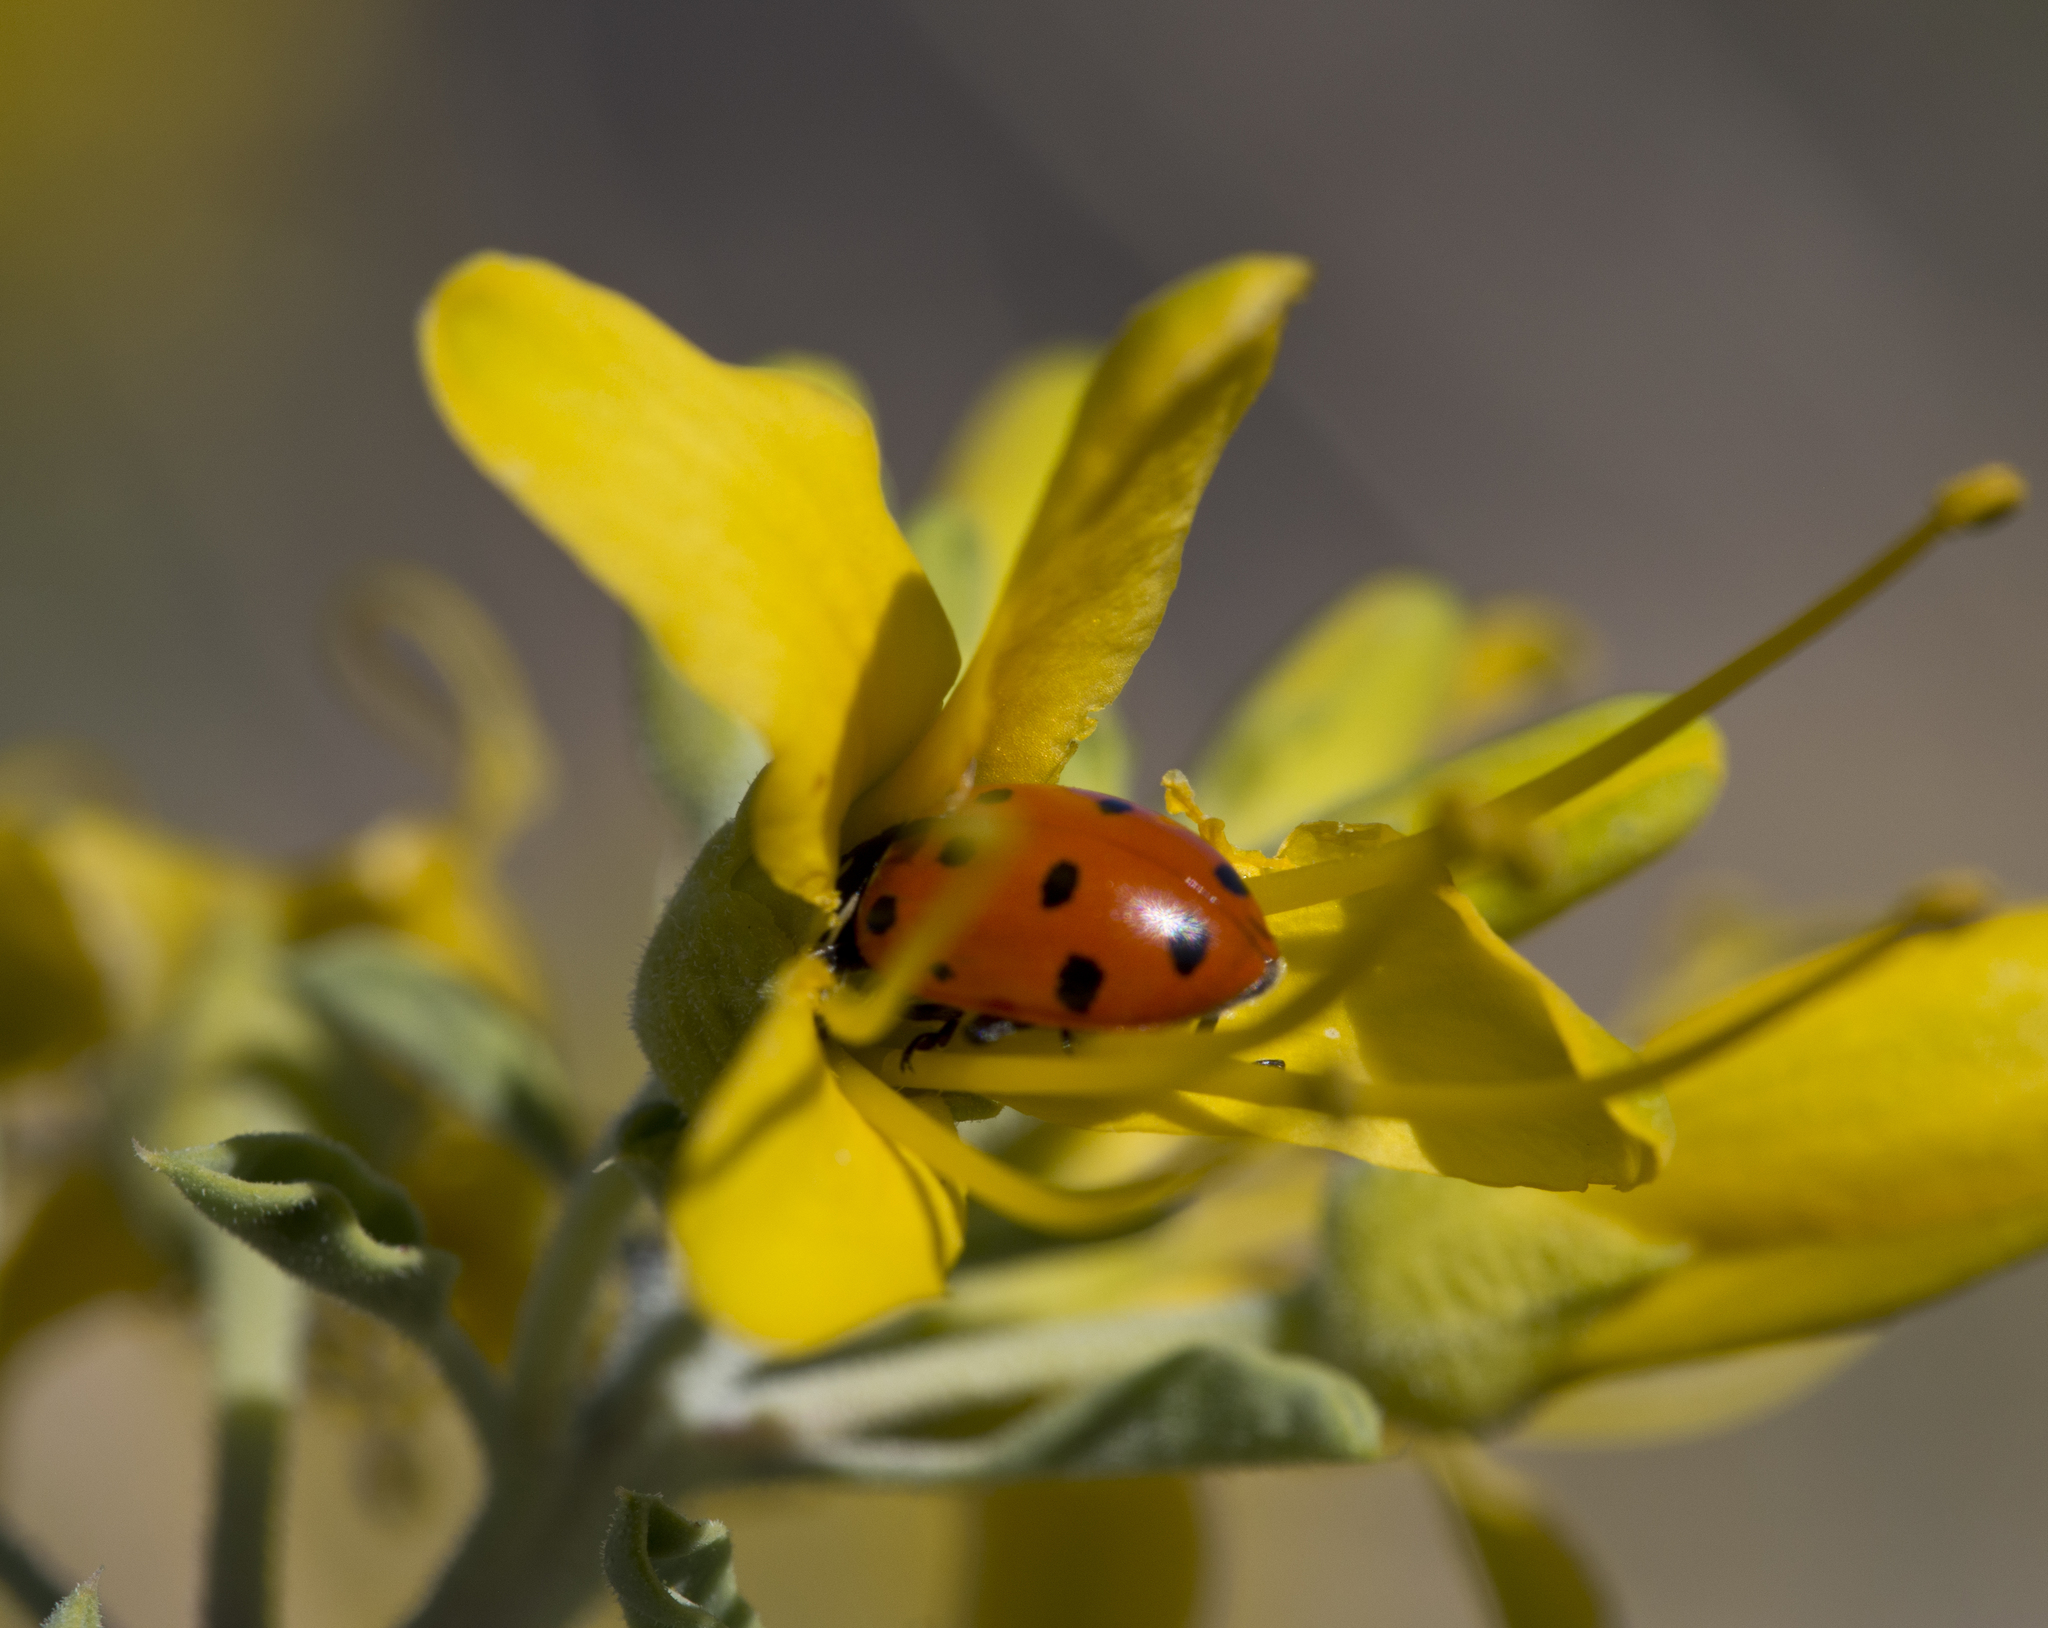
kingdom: Animalia
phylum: Arthropoda
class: Insecta
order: Coleoptera
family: Coccinellidae
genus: Hippodamia
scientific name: Hippodamia convergens
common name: Convergent lady beetle
